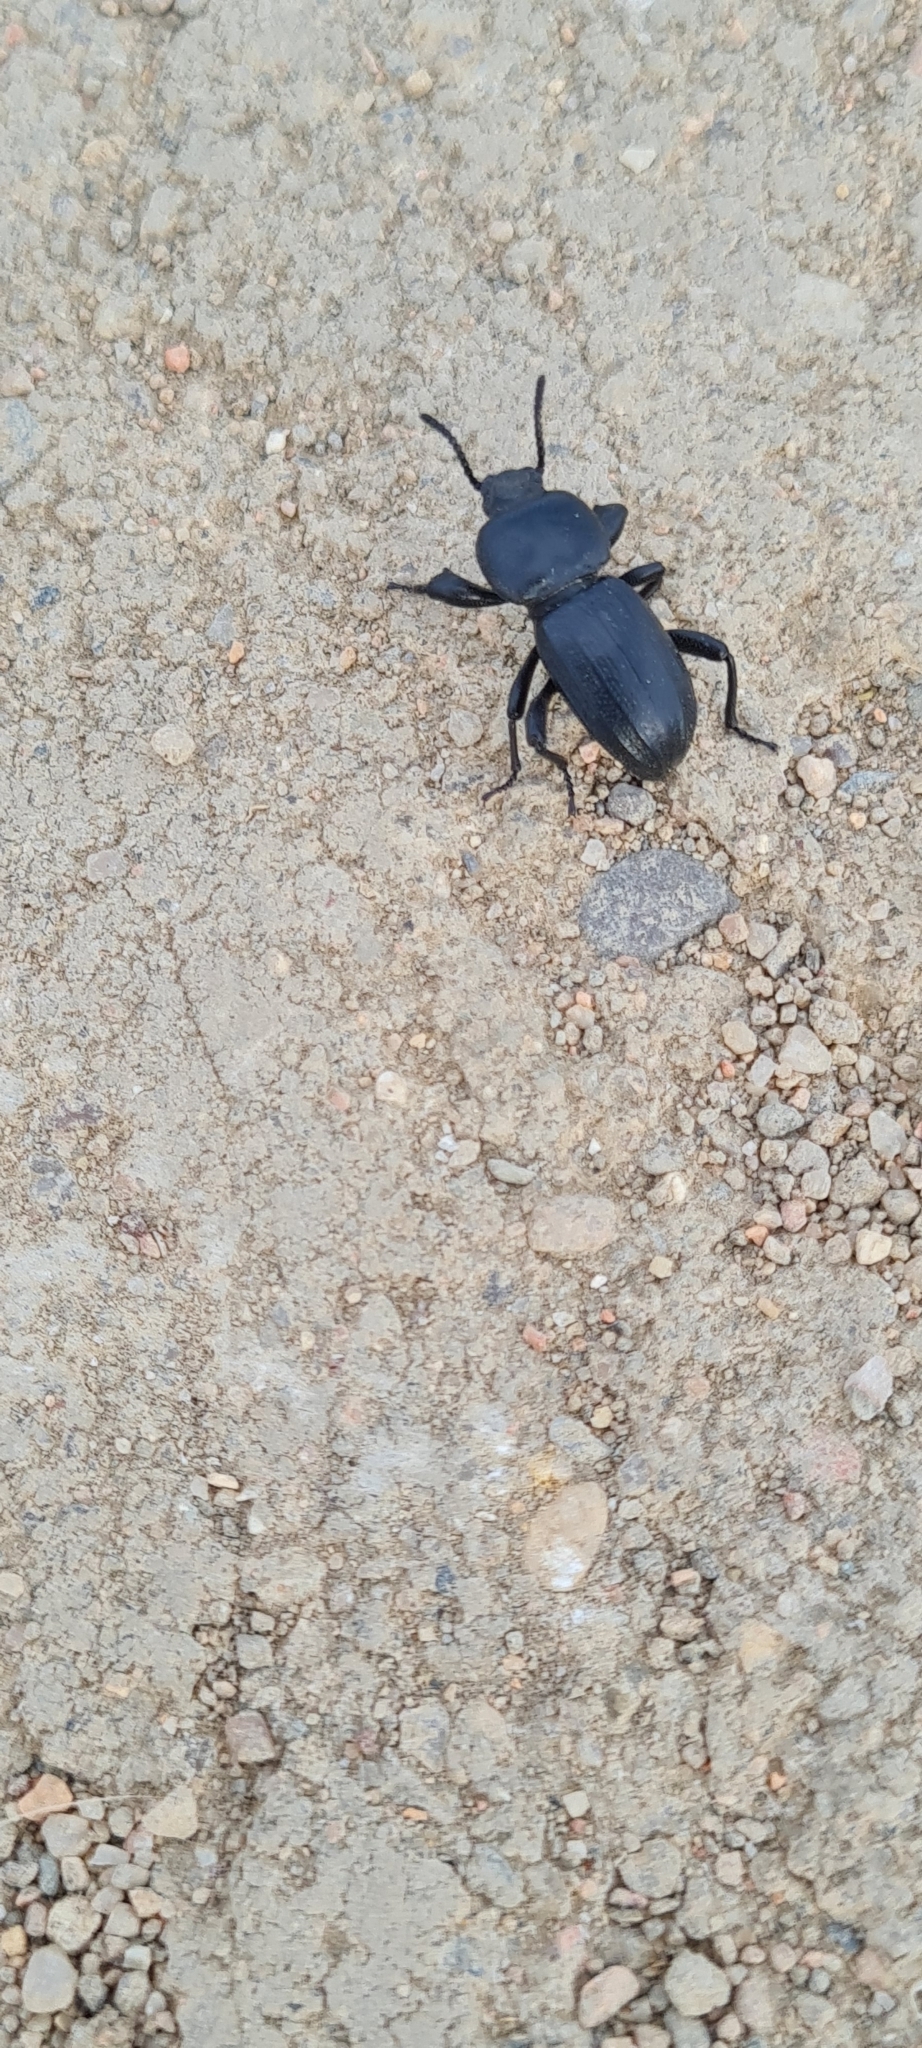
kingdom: Animalia
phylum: Arthropoda
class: Insecta
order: Coleoptera
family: Tenebrionidae
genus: Scaurus
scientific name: Scaurus uncinus
